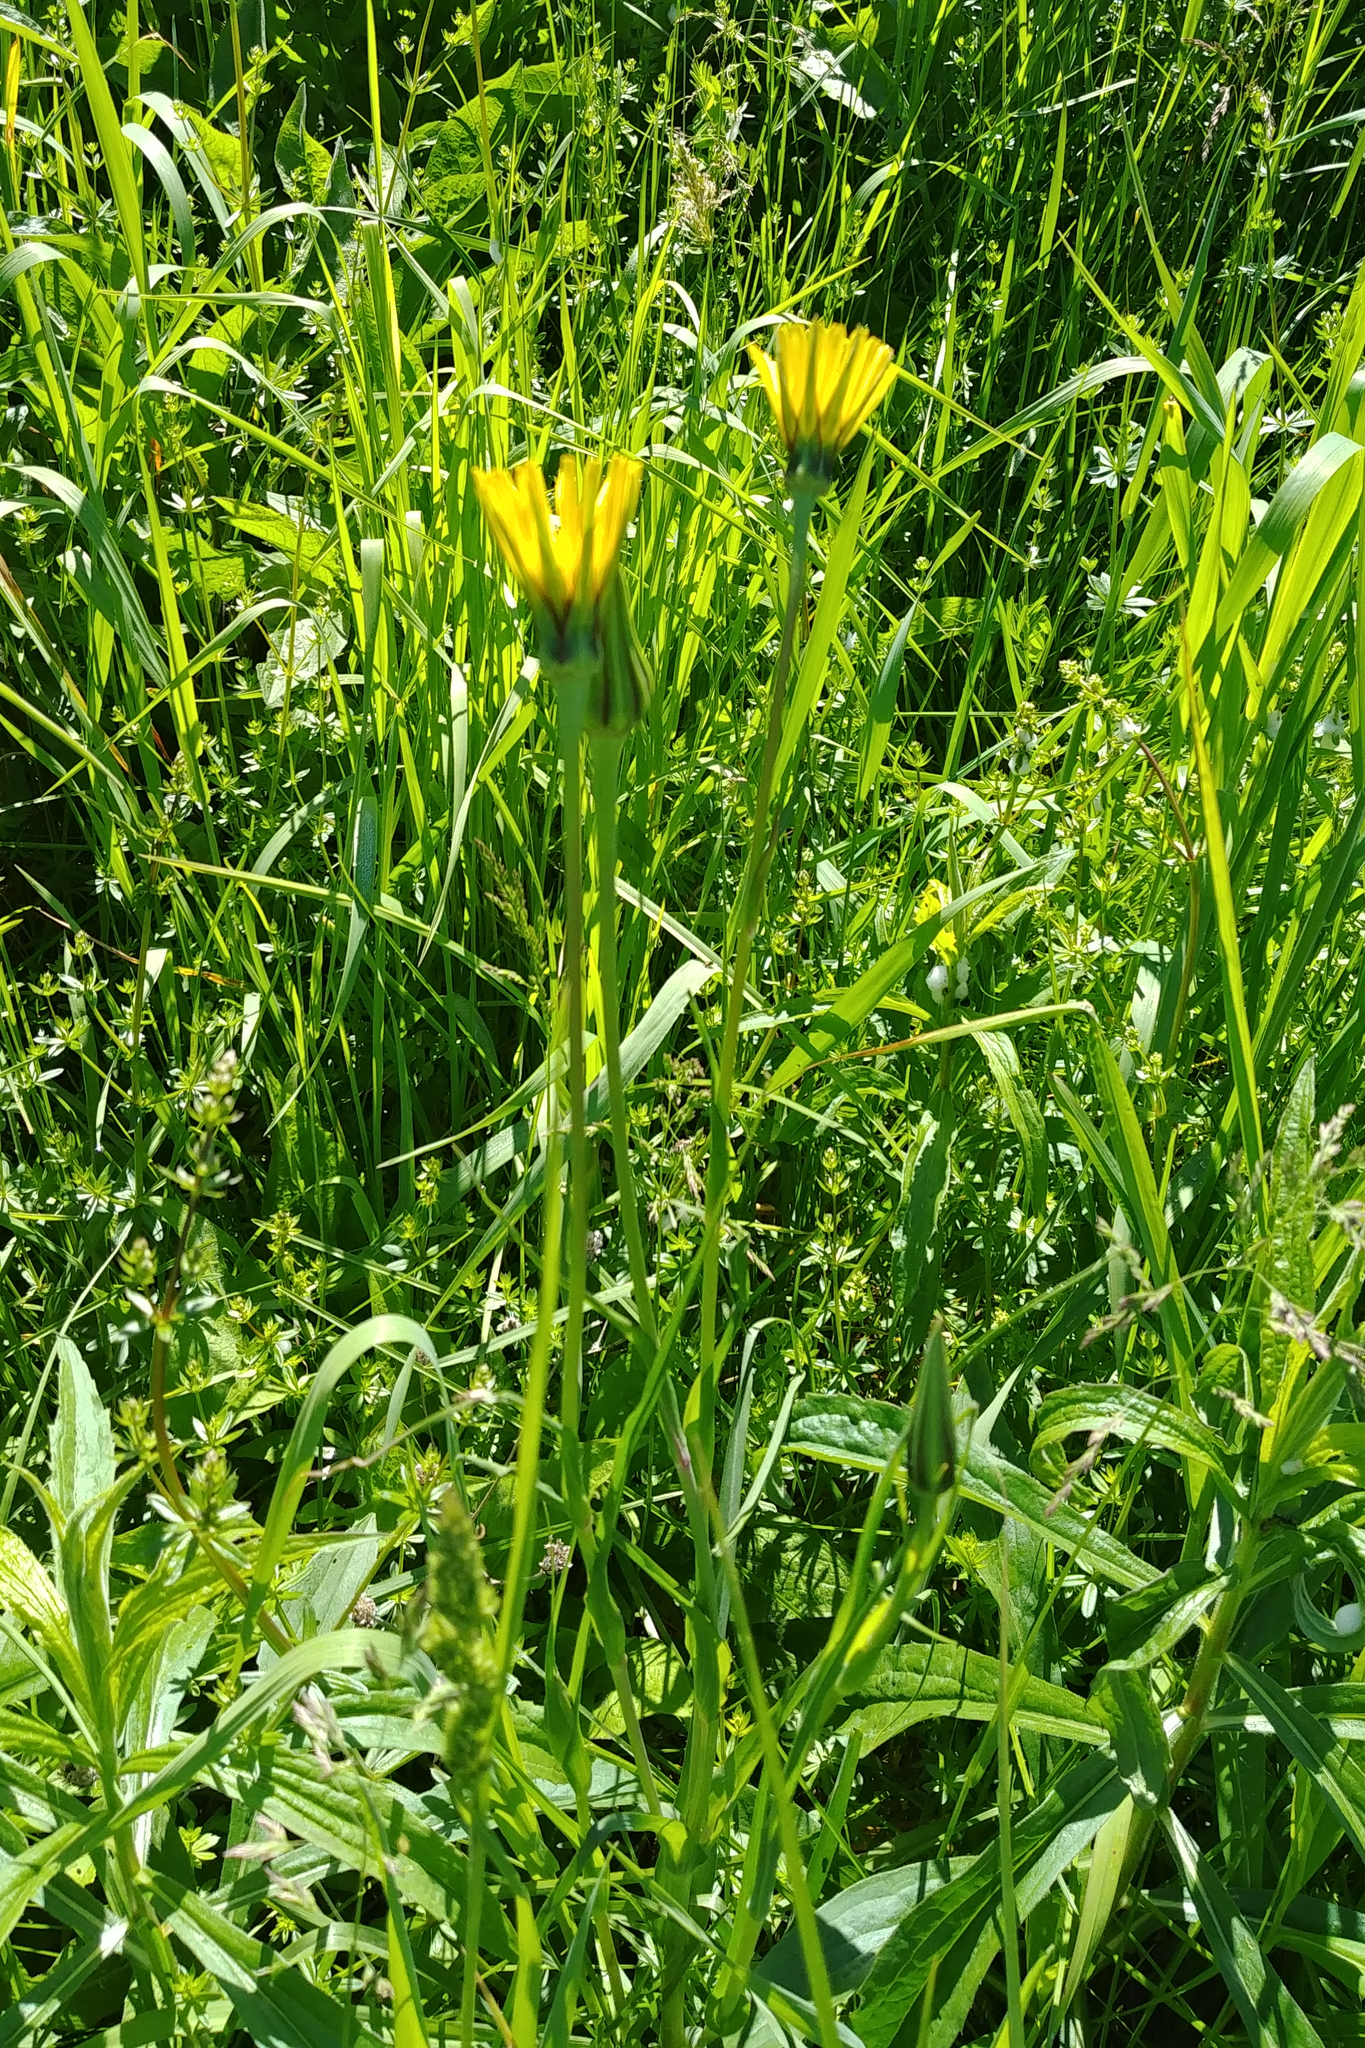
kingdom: Plantae
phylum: Tracheophyta
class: Magnoliopsida
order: Asterales
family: Asteraceae
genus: Tragopogon
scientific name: Tragopogon pratensis
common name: Goat's-beard
